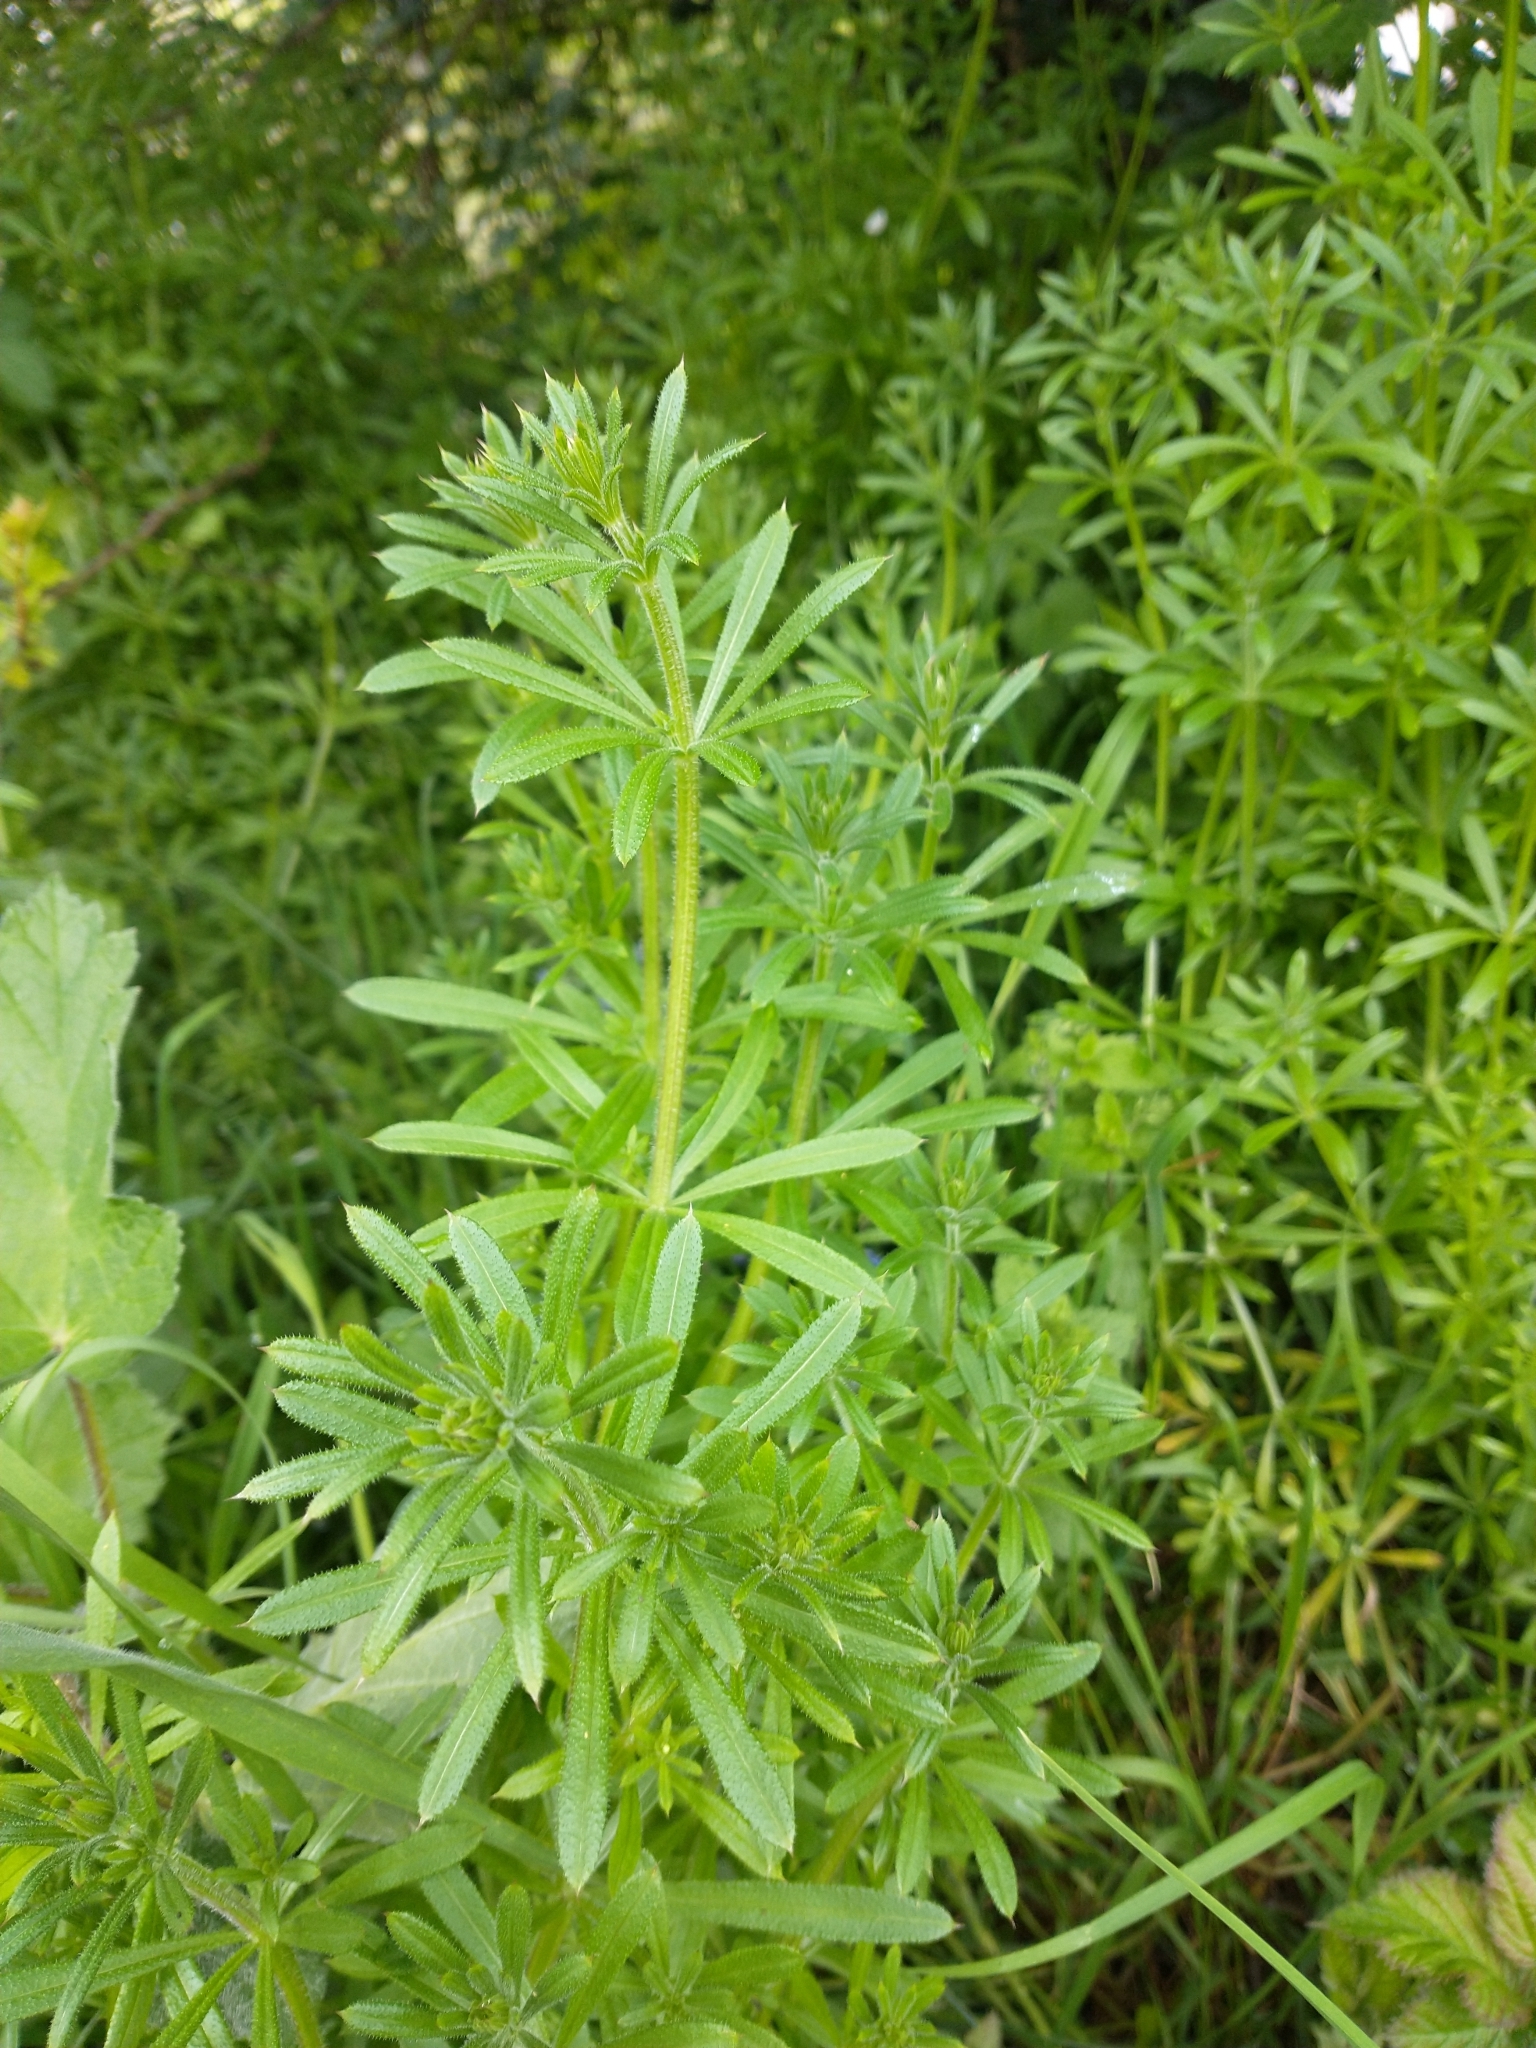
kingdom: Plantae
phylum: Tracheophyta
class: Magnoliopsida
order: Gentianales
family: Rubiaceae
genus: Galium
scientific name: Galium aparine
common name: Cleavers
